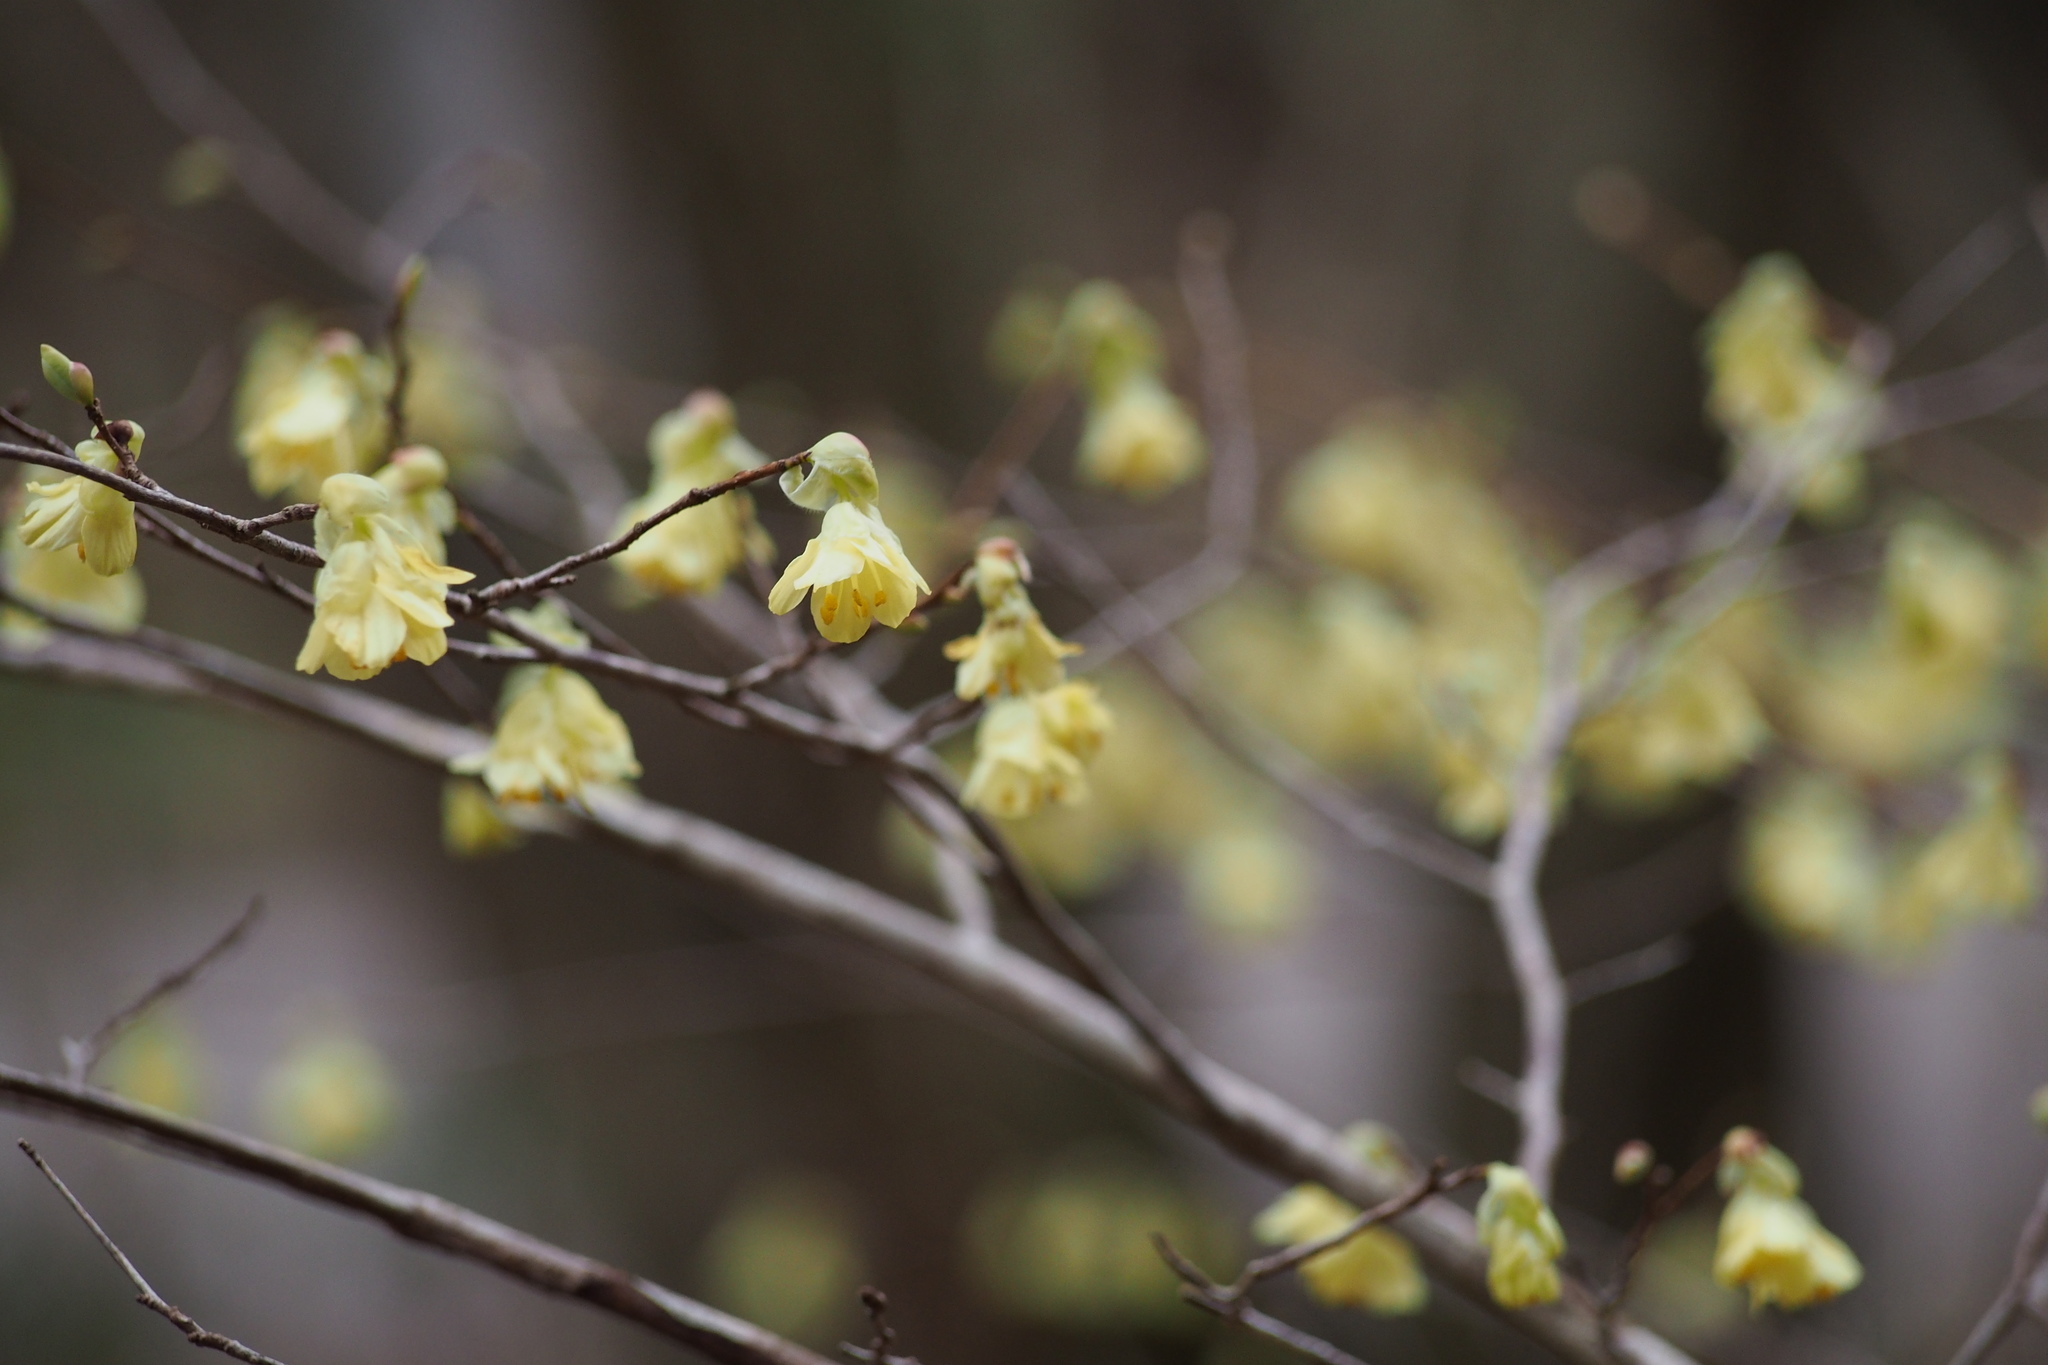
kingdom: Plantae
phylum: Tracheophyta
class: Magnoliopsida
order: Saxifragales
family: Hamamelidaceae
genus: Corylopsis
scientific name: Corylopsis pauciflora
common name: Buttercup winter-hazel
